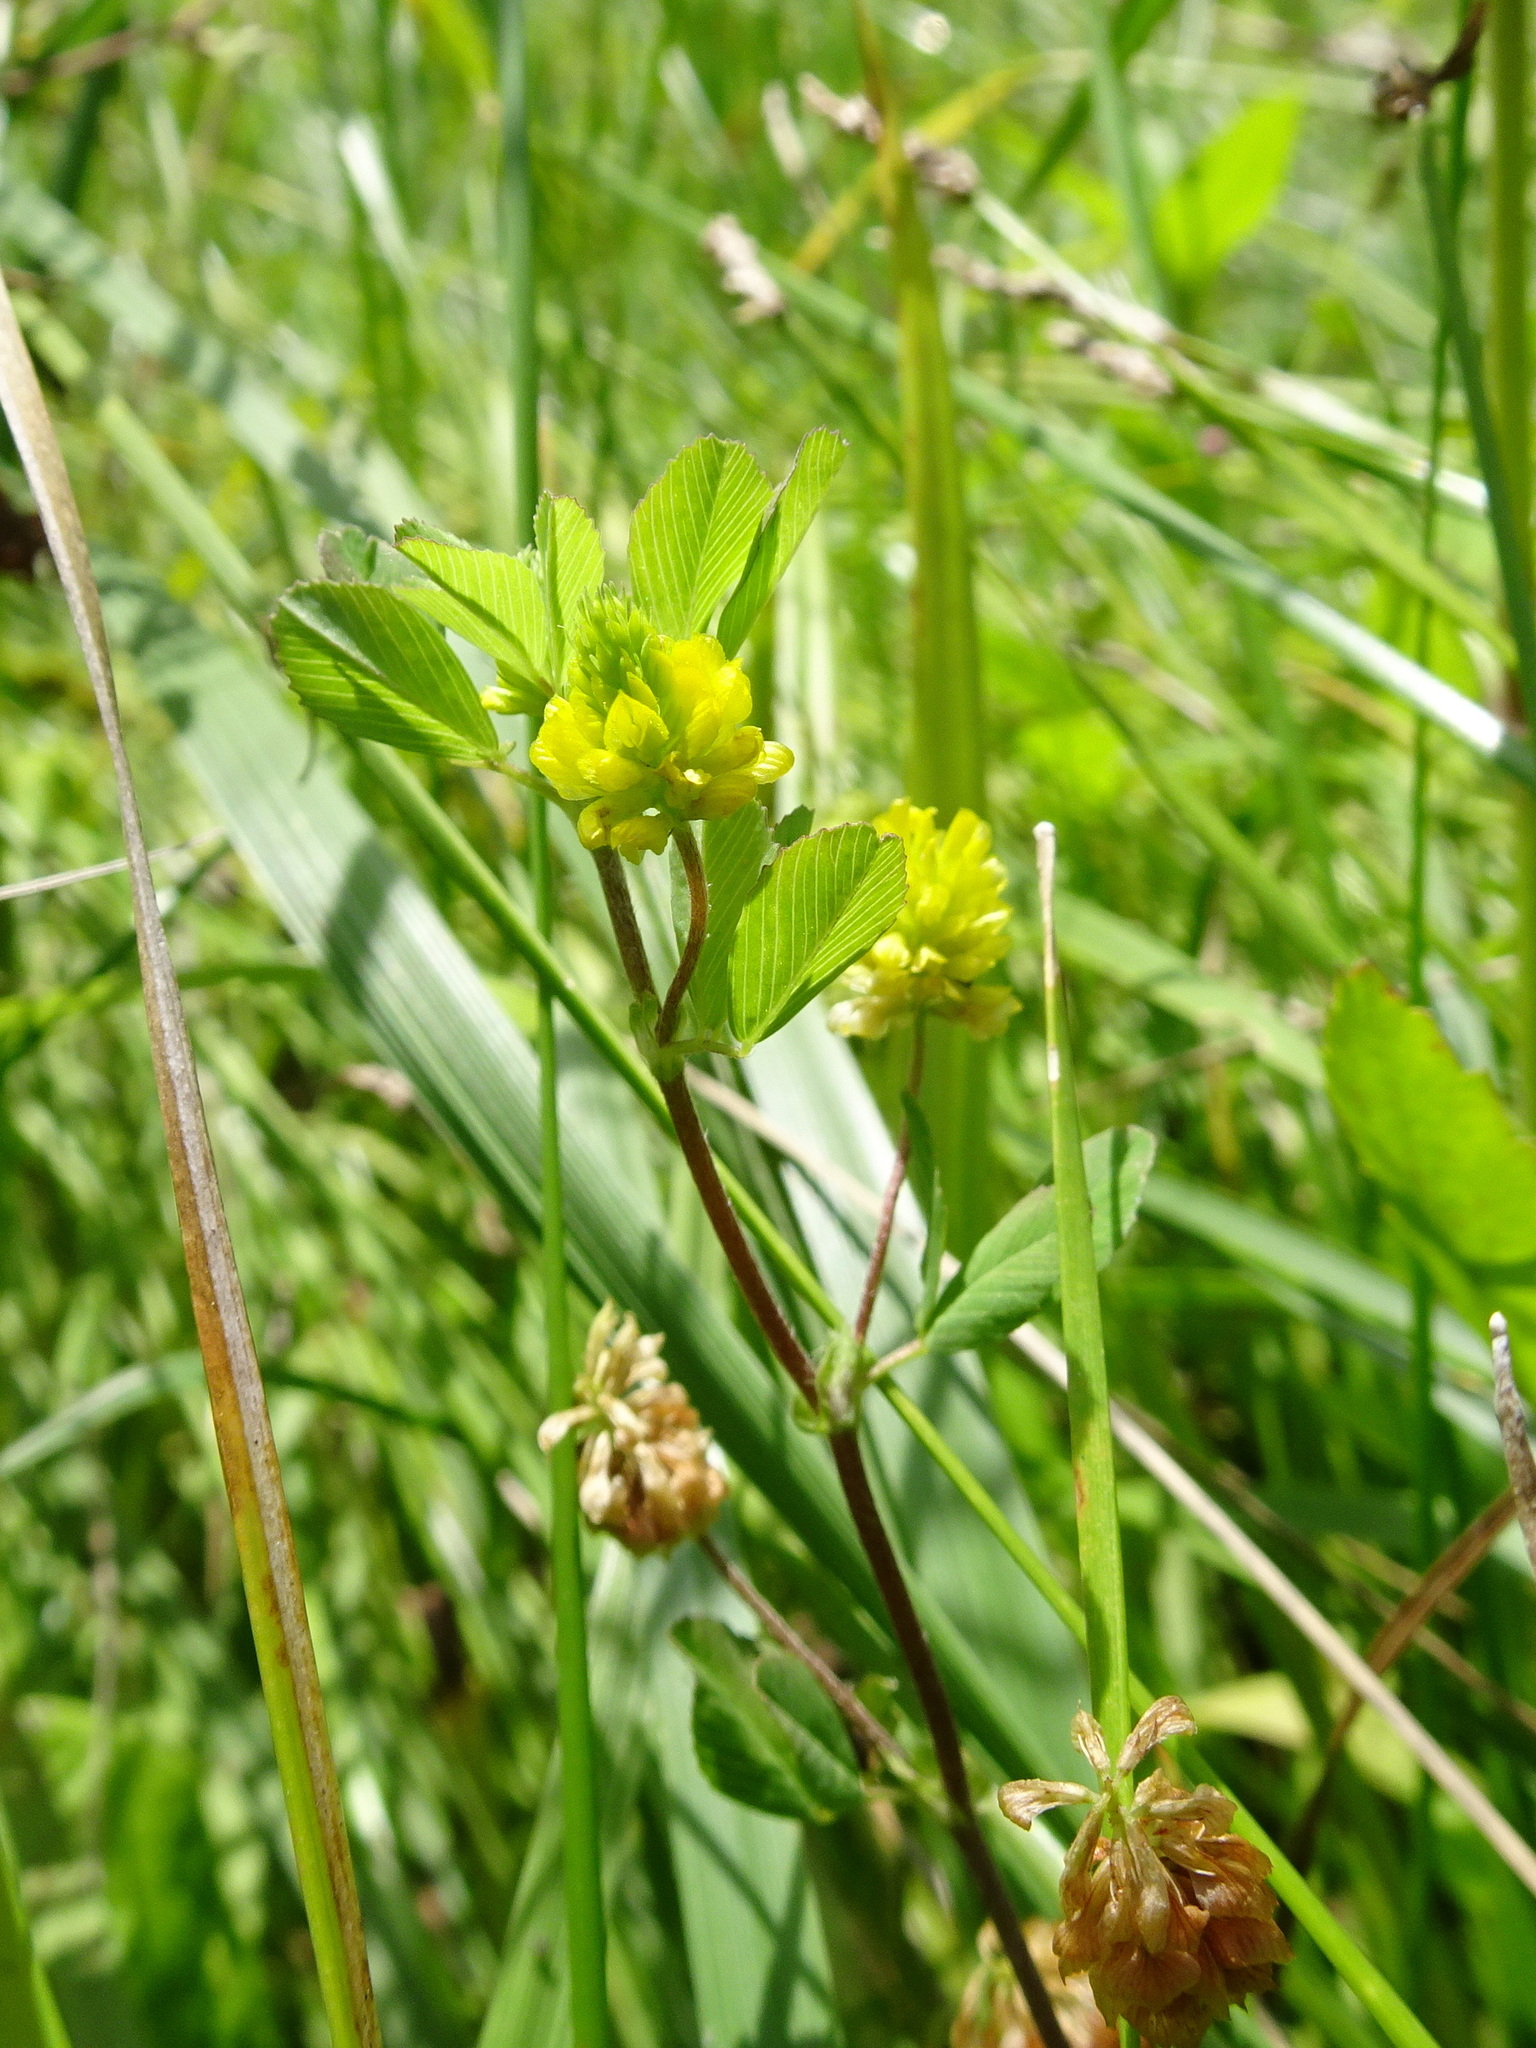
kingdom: Plantae
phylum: Tracheophyta
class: Magnoliopsida
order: Fabales
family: Fabaceae
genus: Trifolium
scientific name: Trifolium campestre
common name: Field clover
